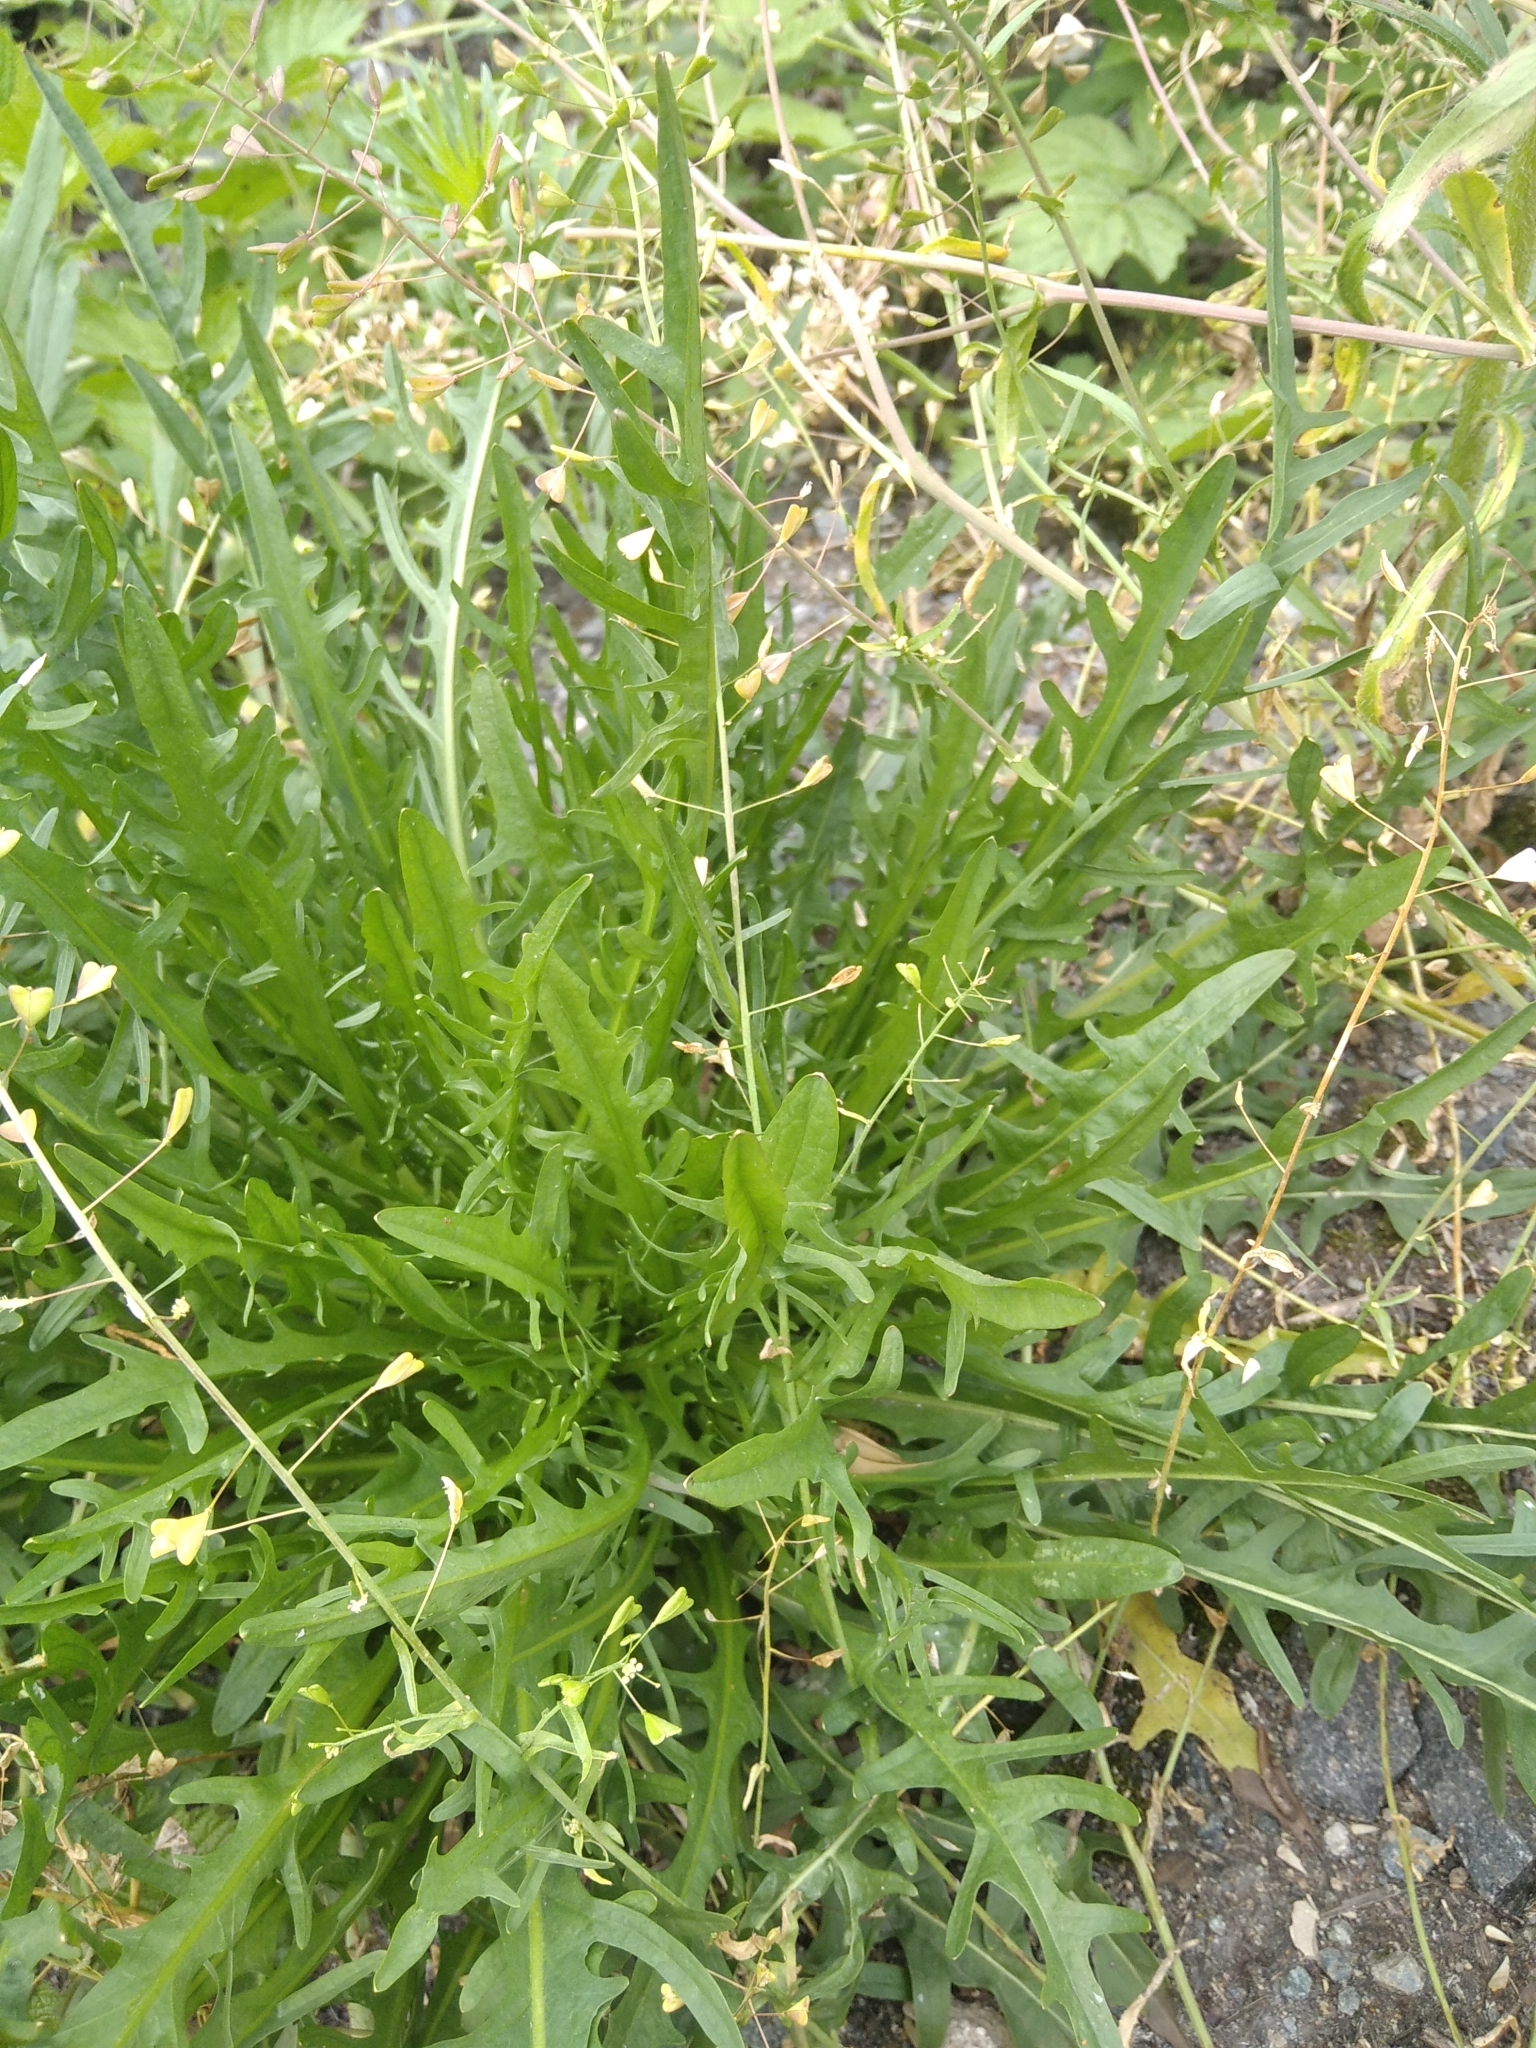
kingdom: Plantae
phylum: Tracheophyta
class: Magnoliopsida
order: Asterales
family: Asteraceae
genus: Scorzoneroides
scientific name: Scorzoneroides autumnalis
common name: Autumn hawkbit
